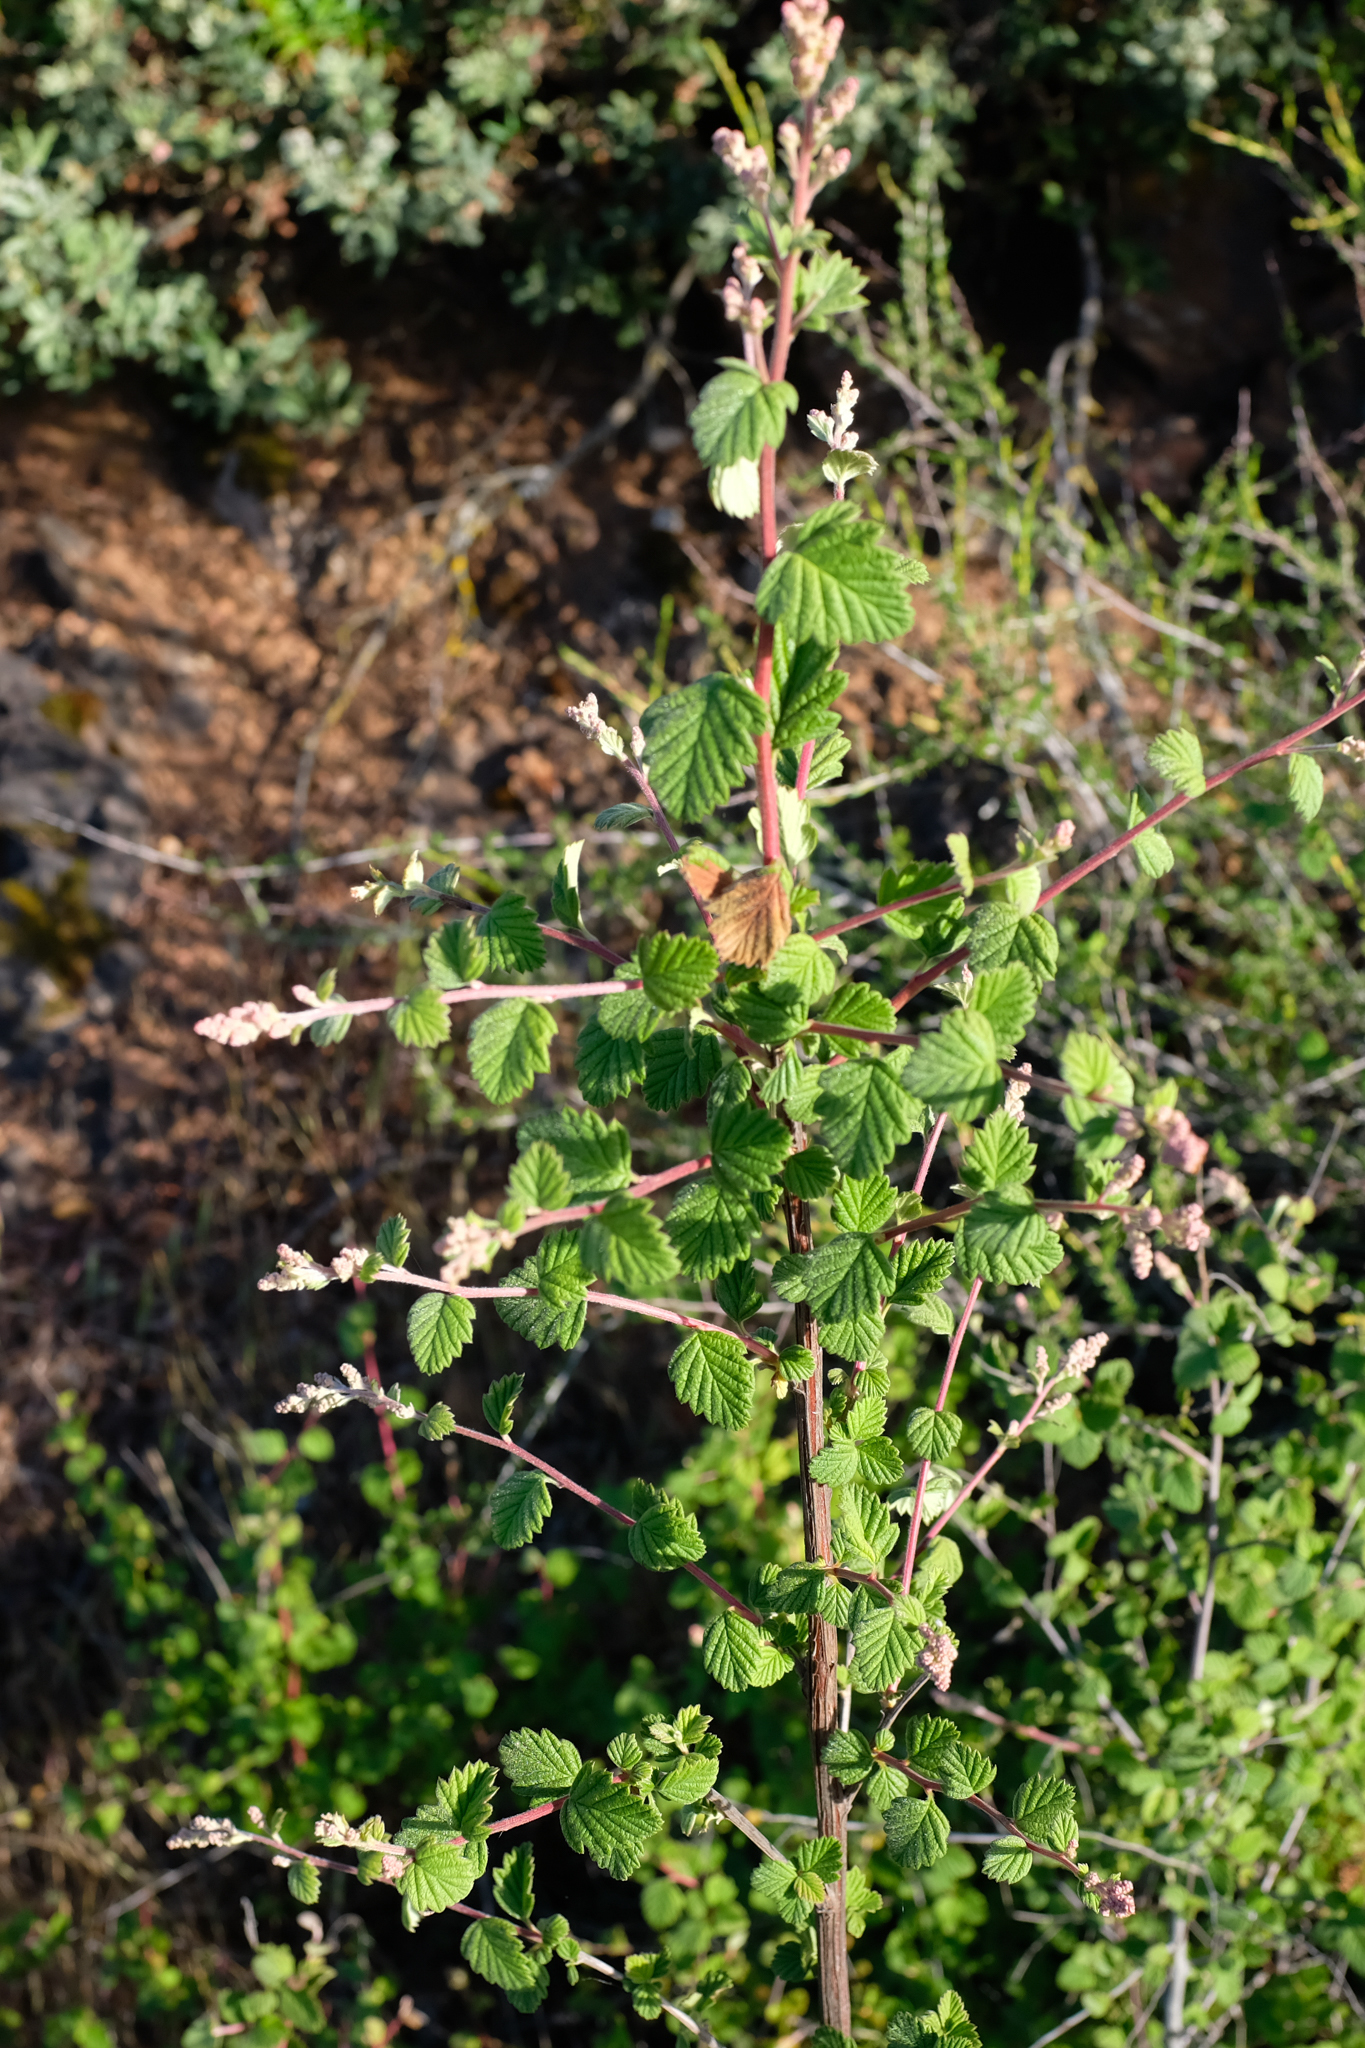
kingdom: Plantae
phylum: Tracheophyta
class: Magnoliopsida
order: Rosales
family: Rosaceae
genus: Holodiscus
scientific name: Holodiscus discolor
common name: Oceanspray
